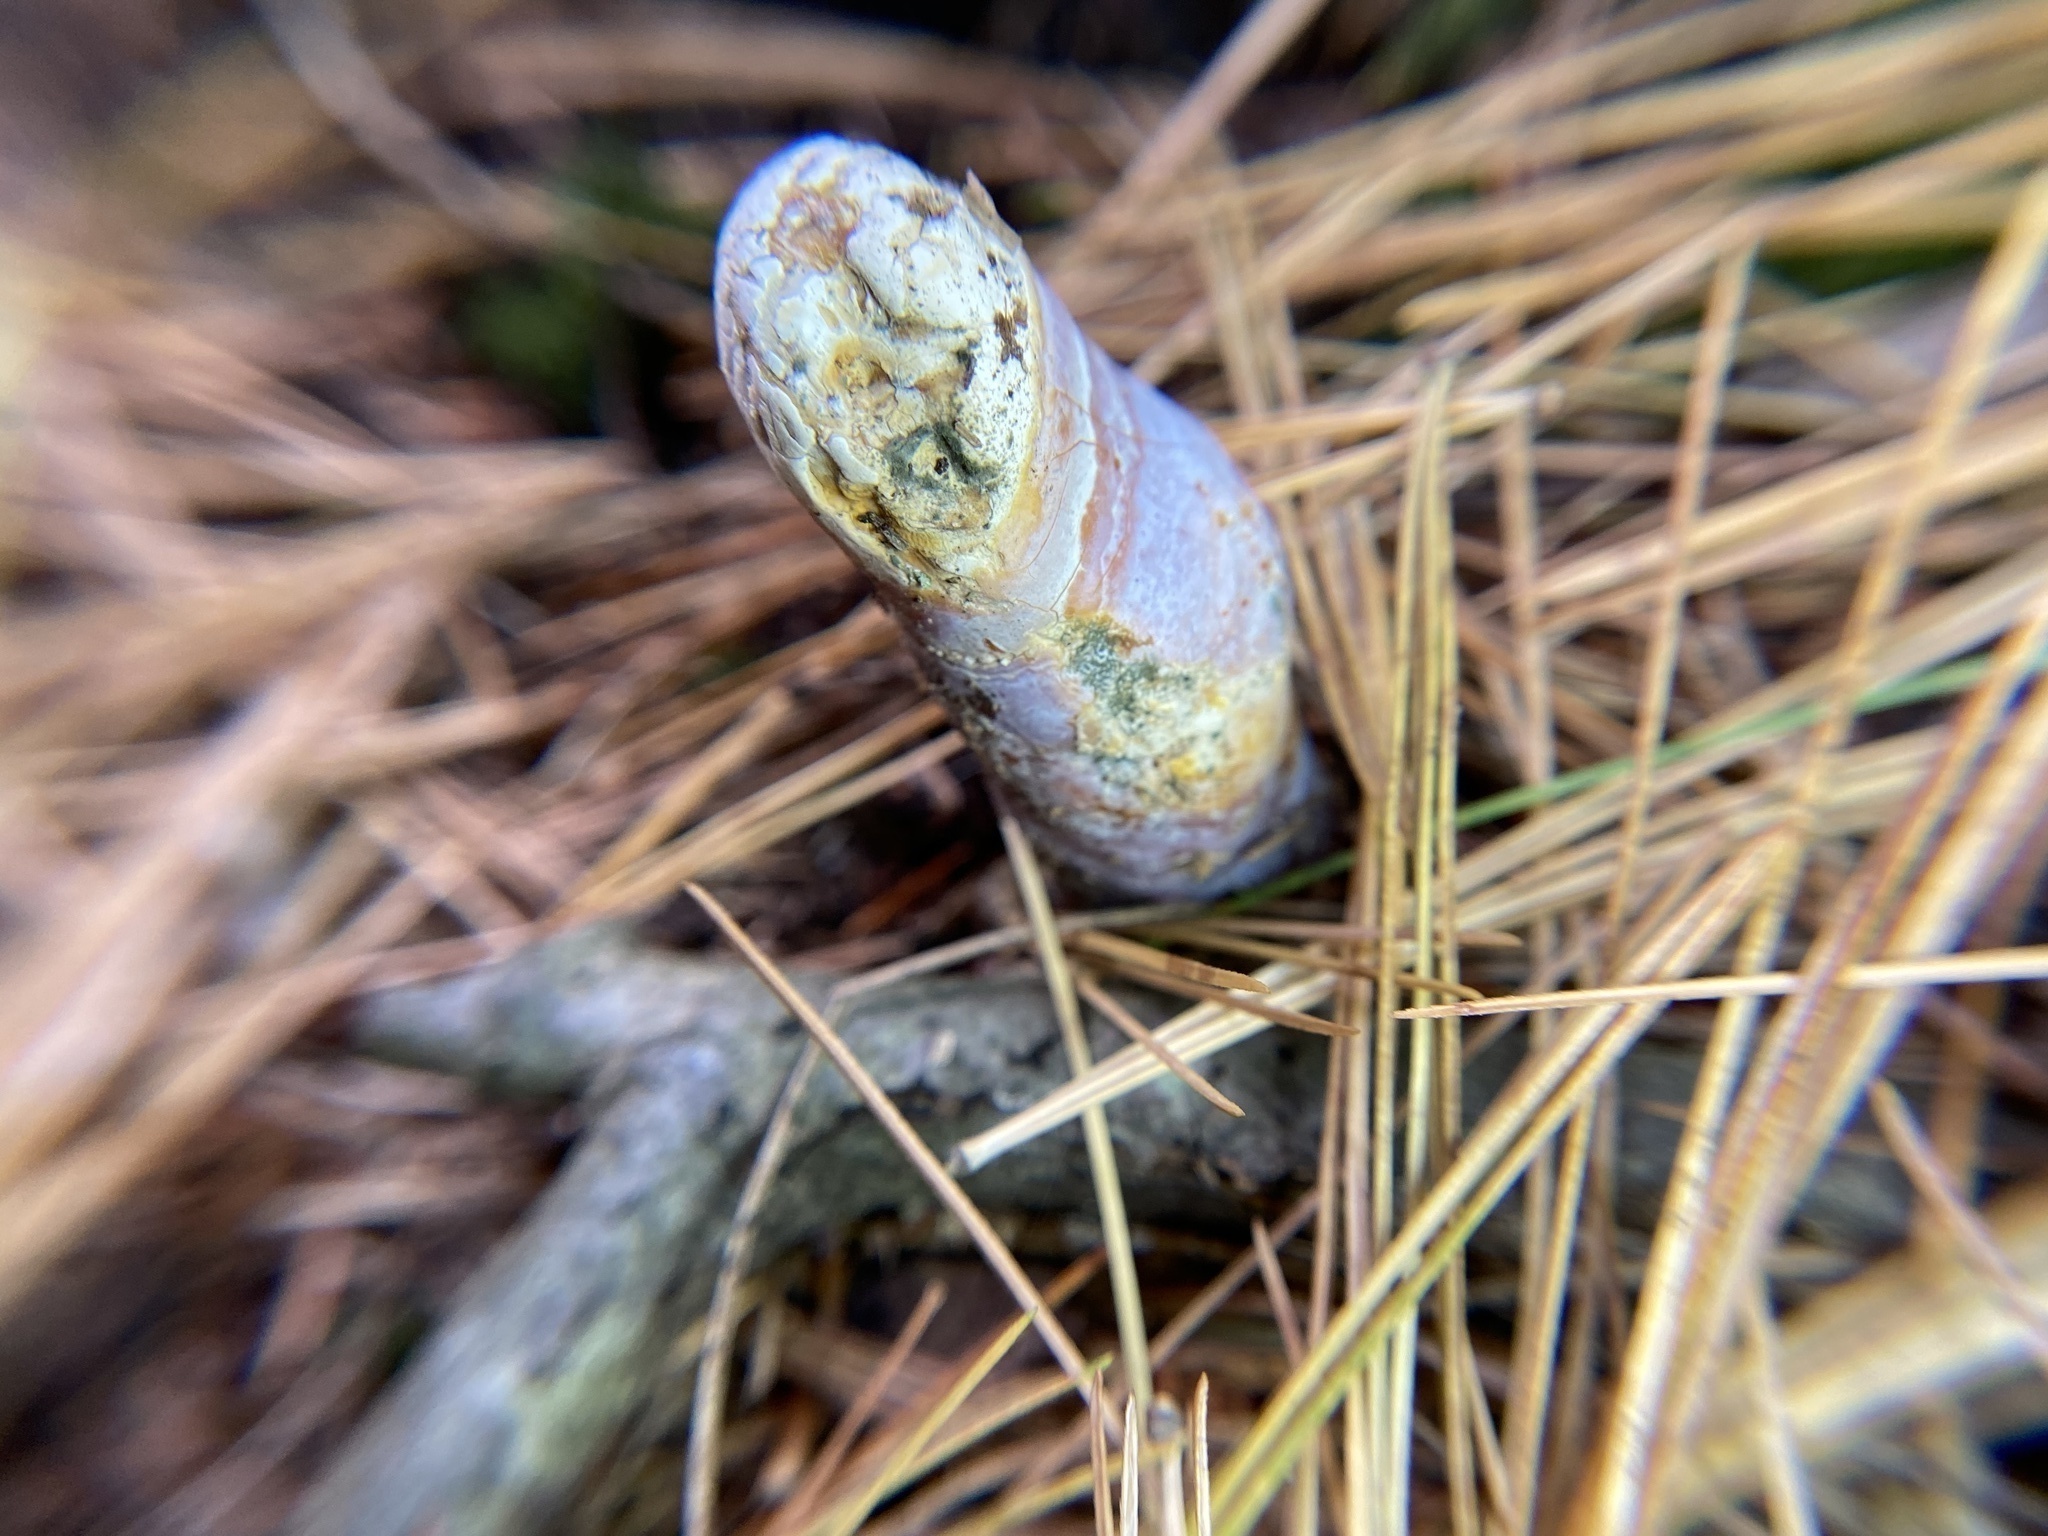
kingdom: Fungi
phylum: Basidiomycota
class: Agaricomycetes
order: Polyporales
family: Polyporaceae
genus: Ganoderma
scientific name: Ganoderma curtisii
